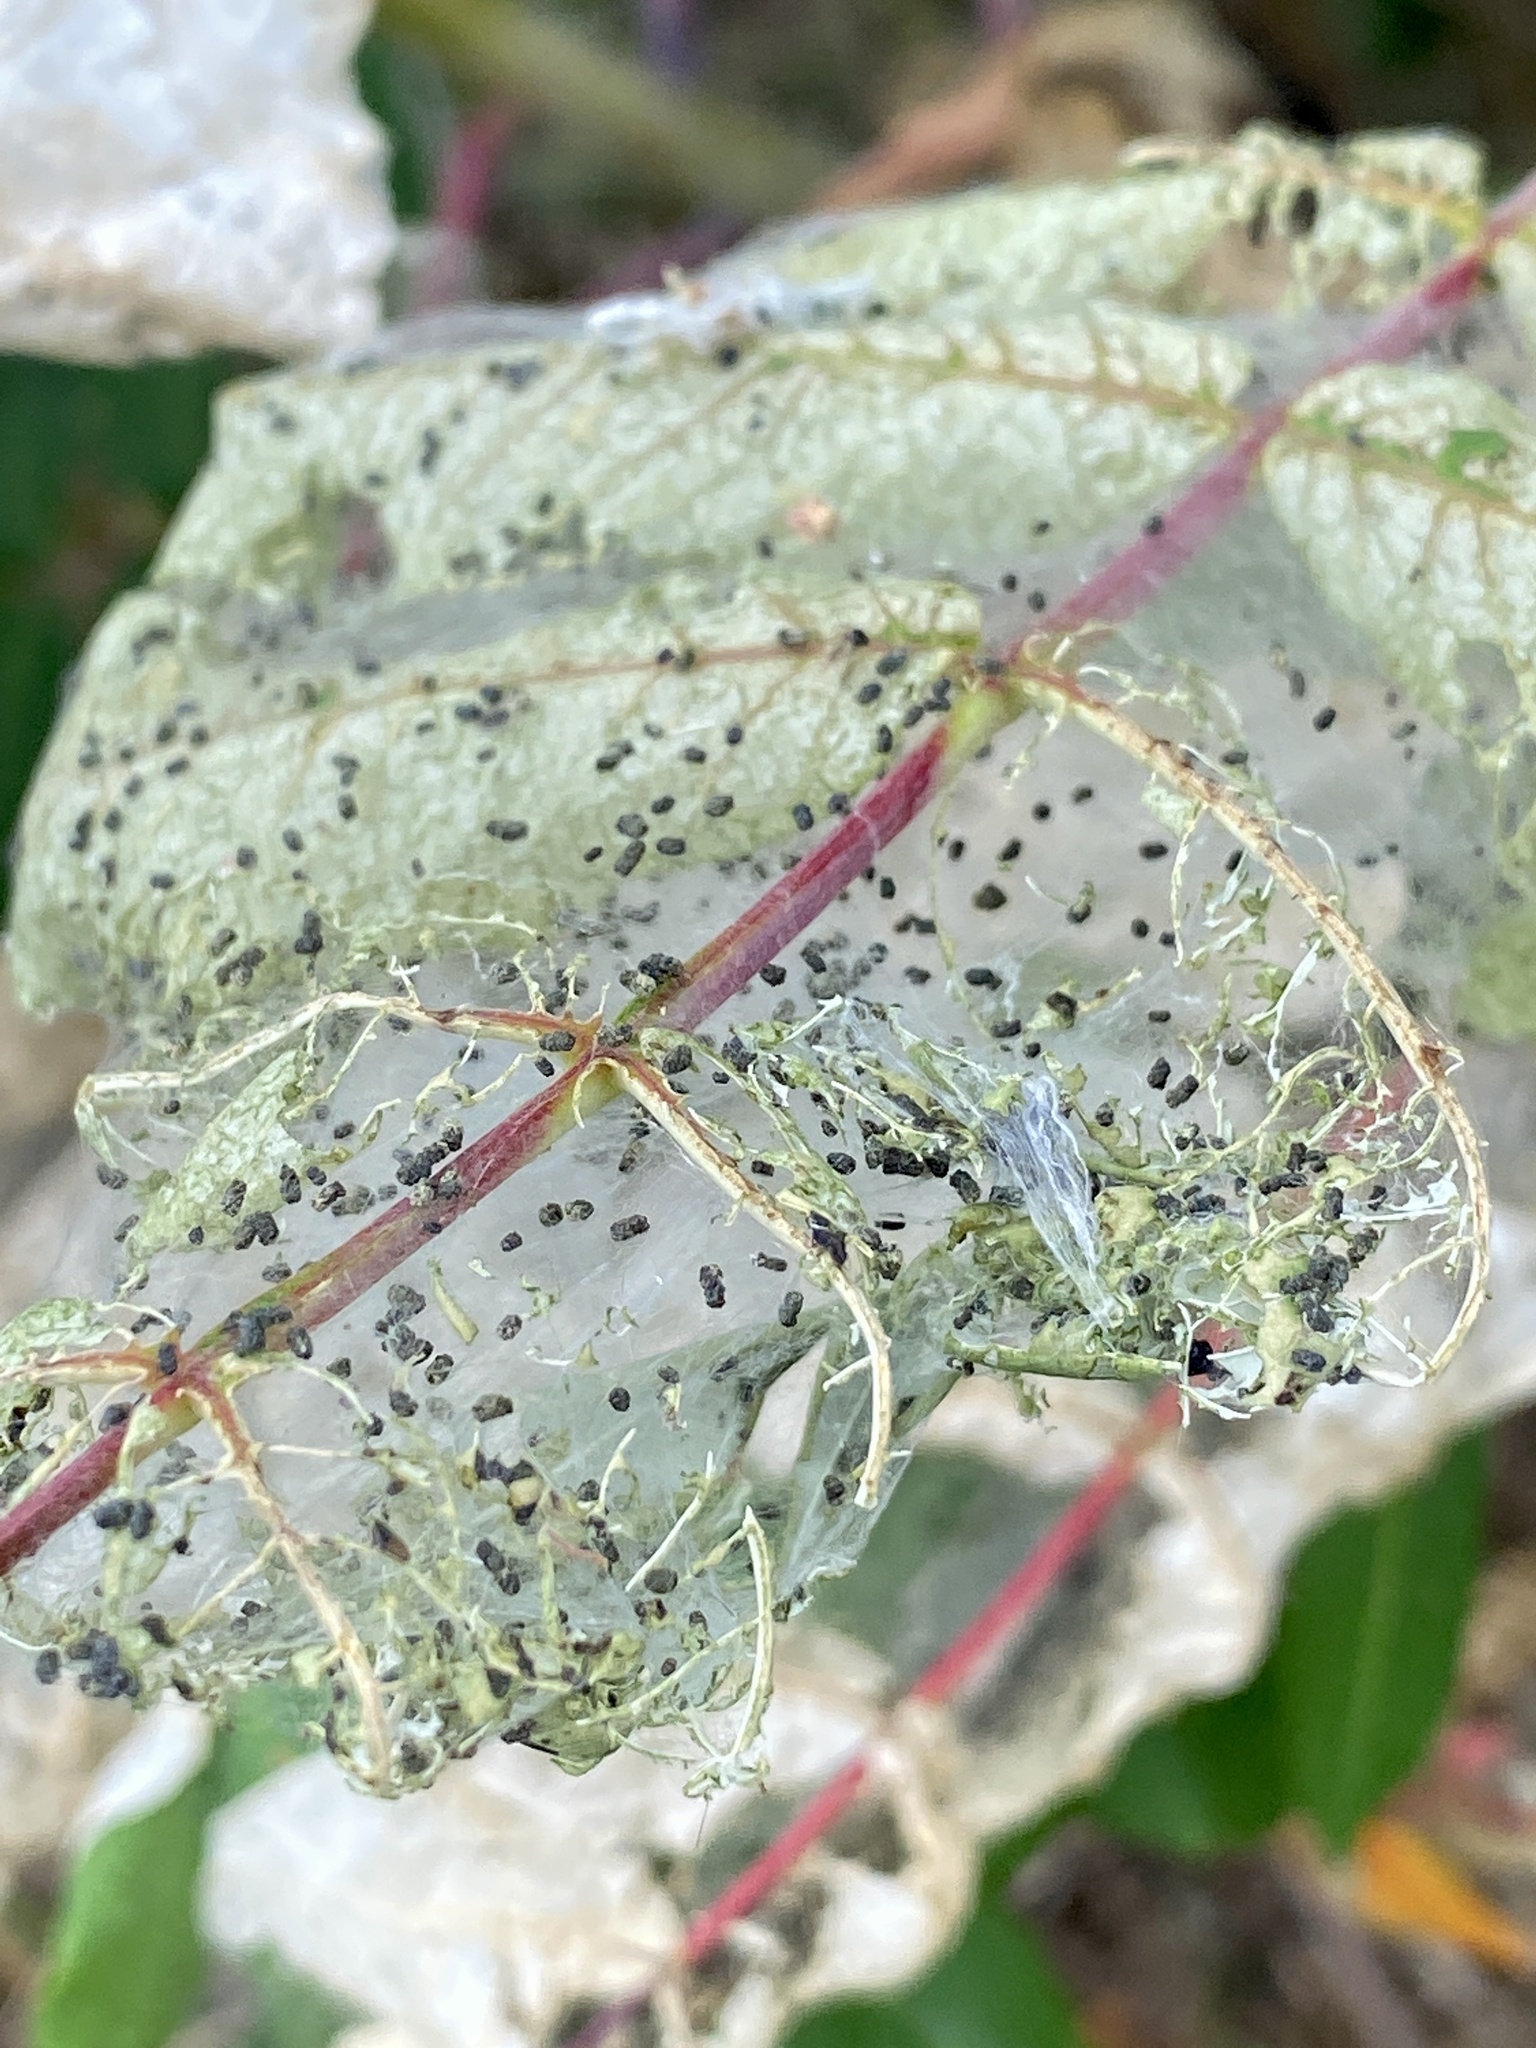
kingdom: Animalia
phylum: Arthropoda
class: Insecta
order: Lepidoptera
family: Erebidae
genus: Hyphantria
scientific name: Hyphantria cunea
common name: American white moth
